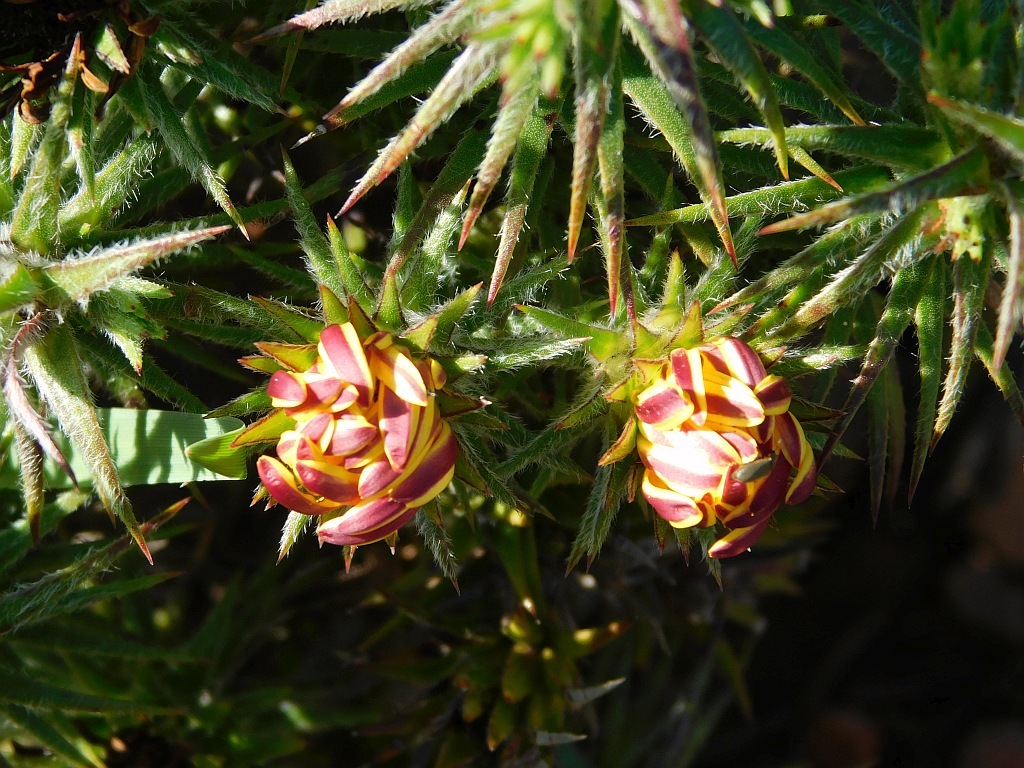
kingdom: Plantae
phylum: Tracheophyta
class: Magnoliopsida
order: Asterales
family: Asteraceae
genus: Oedera
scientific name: Oedera capensis
